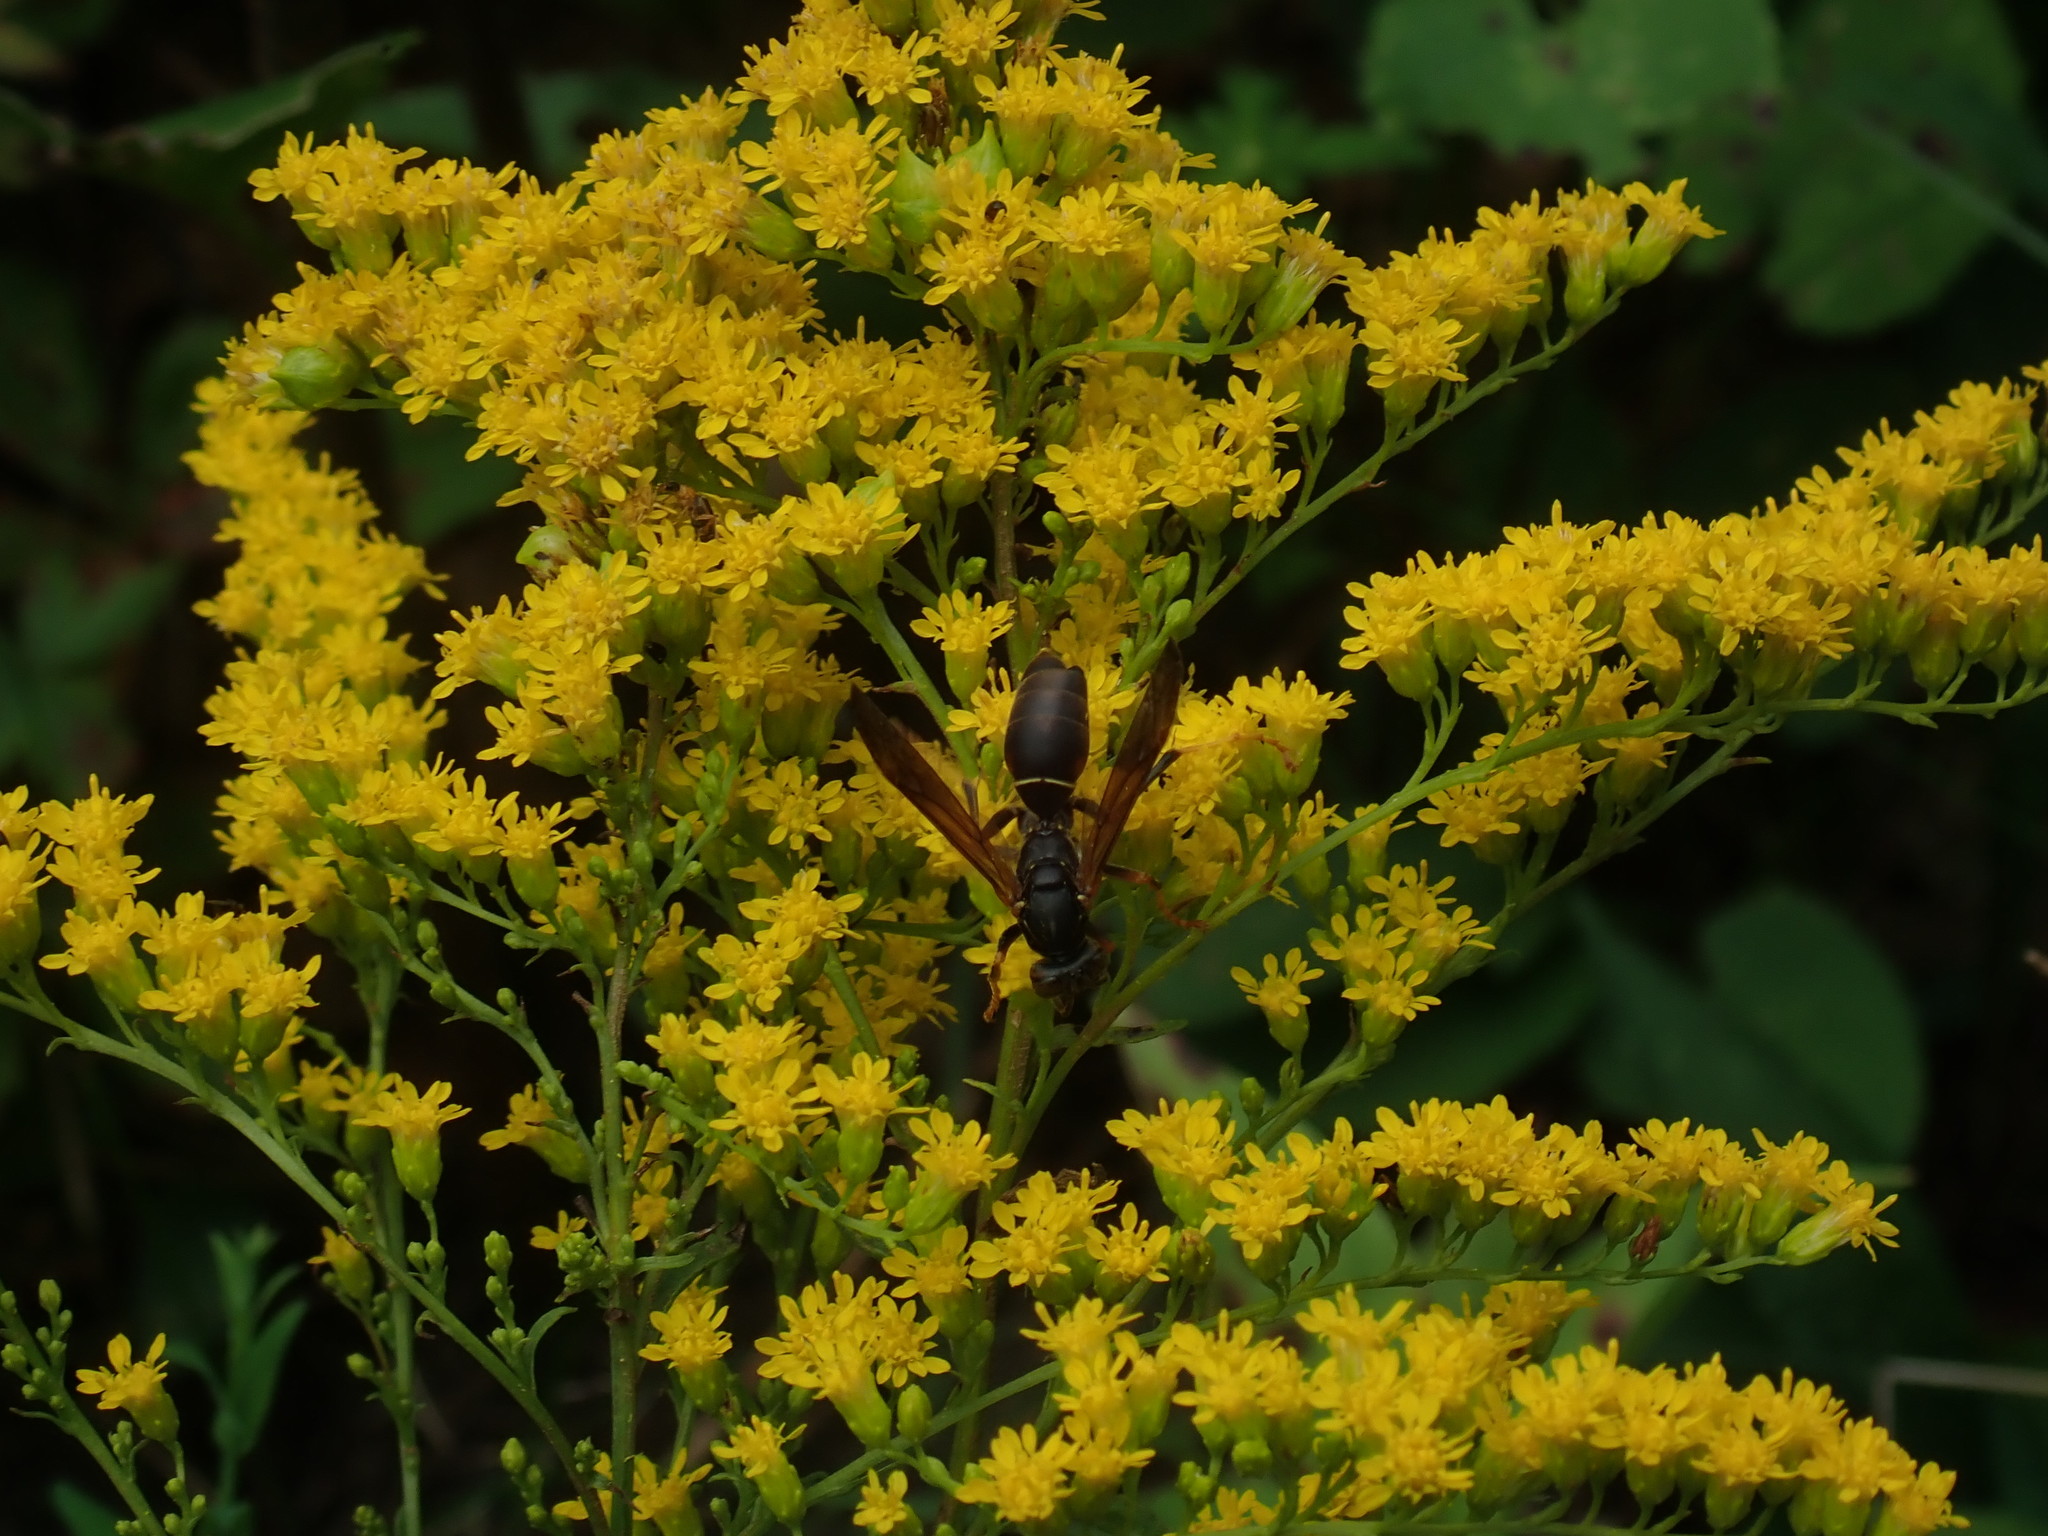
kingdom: Animalia
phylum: Arthropoda
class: Insecta
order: Hymenoptera
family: Eumenidae
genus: Polistes
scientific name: Polistes fuscatus
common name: Dark paper wasp
